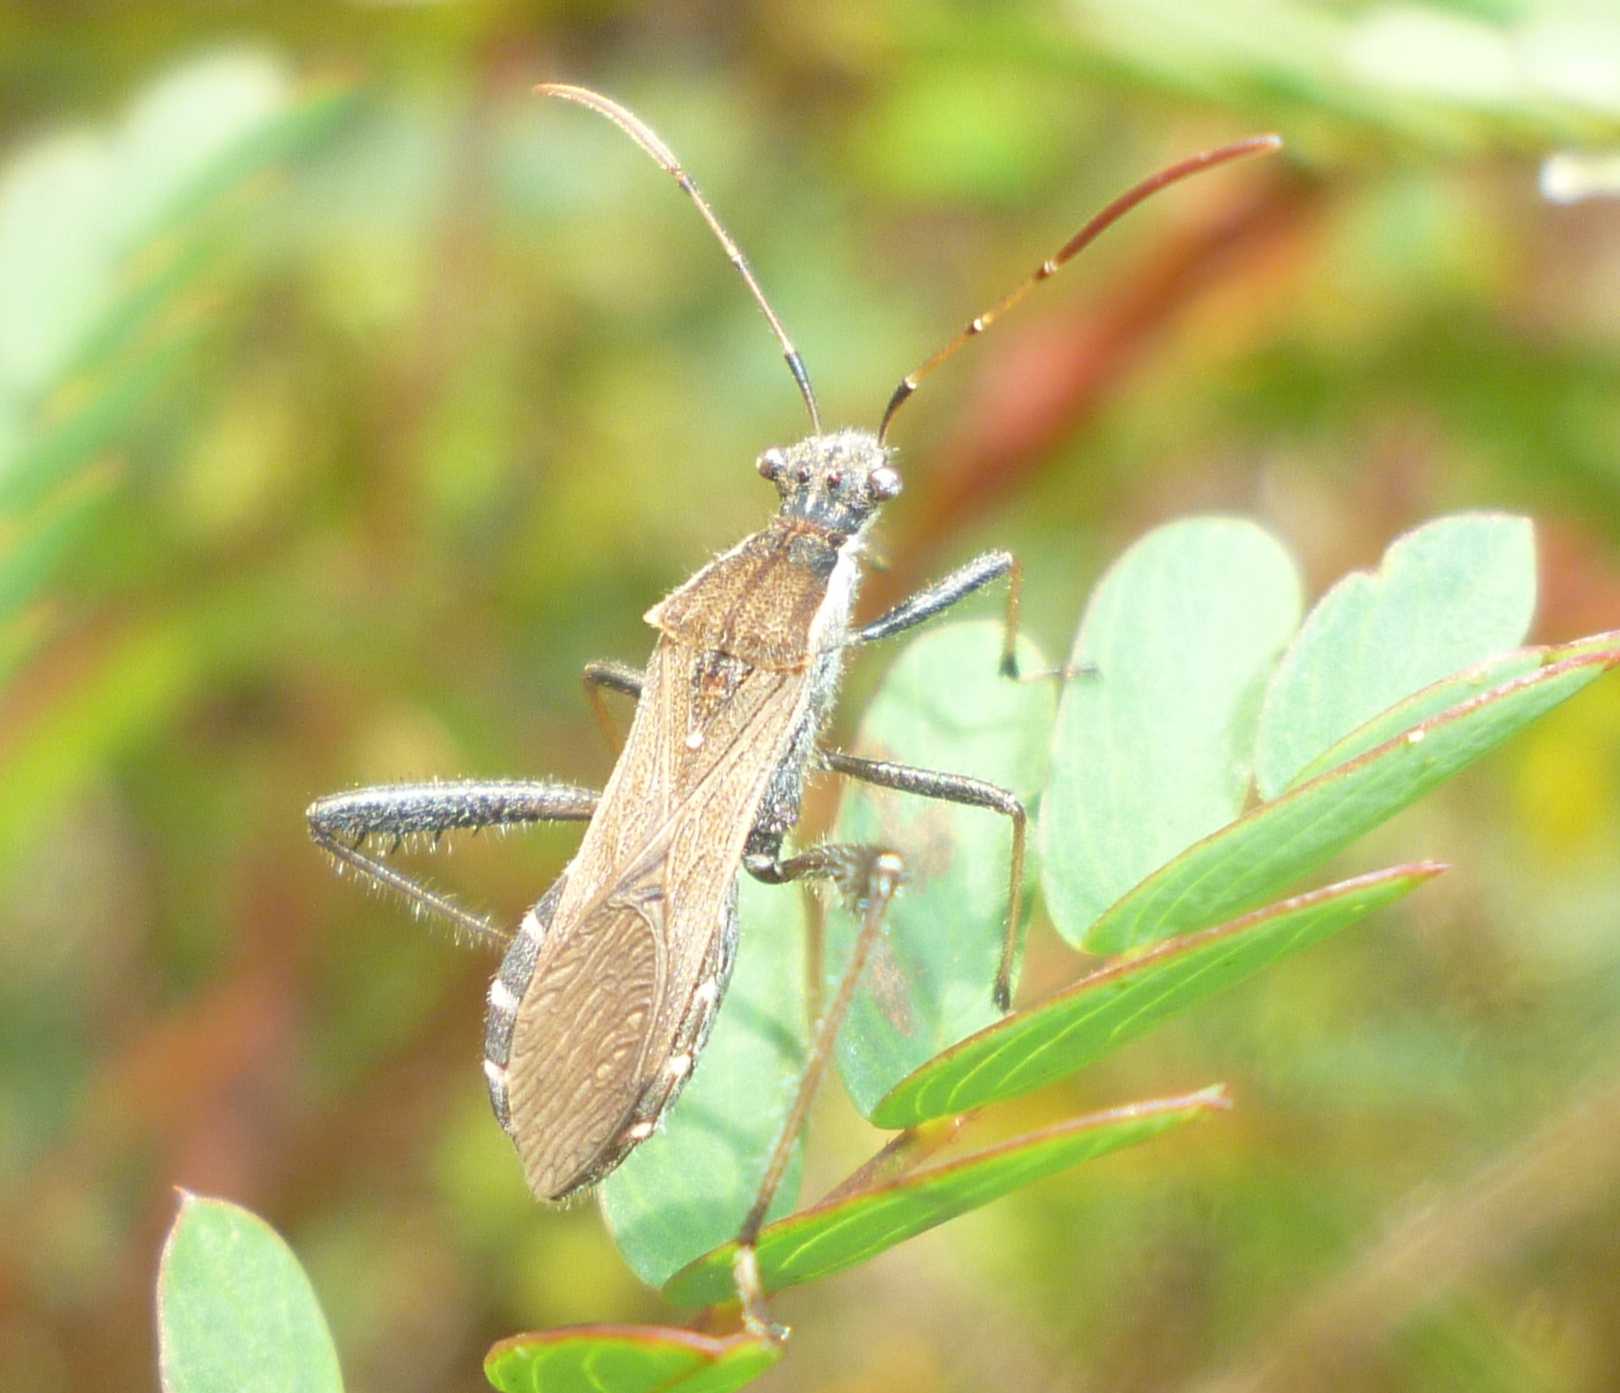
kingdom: Animalia
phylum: Arthropoda
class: Insecta
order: Hemiptera
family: Alydidae
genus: Alydus
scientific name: Alydus pilosulus
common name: Broad-headed bug
